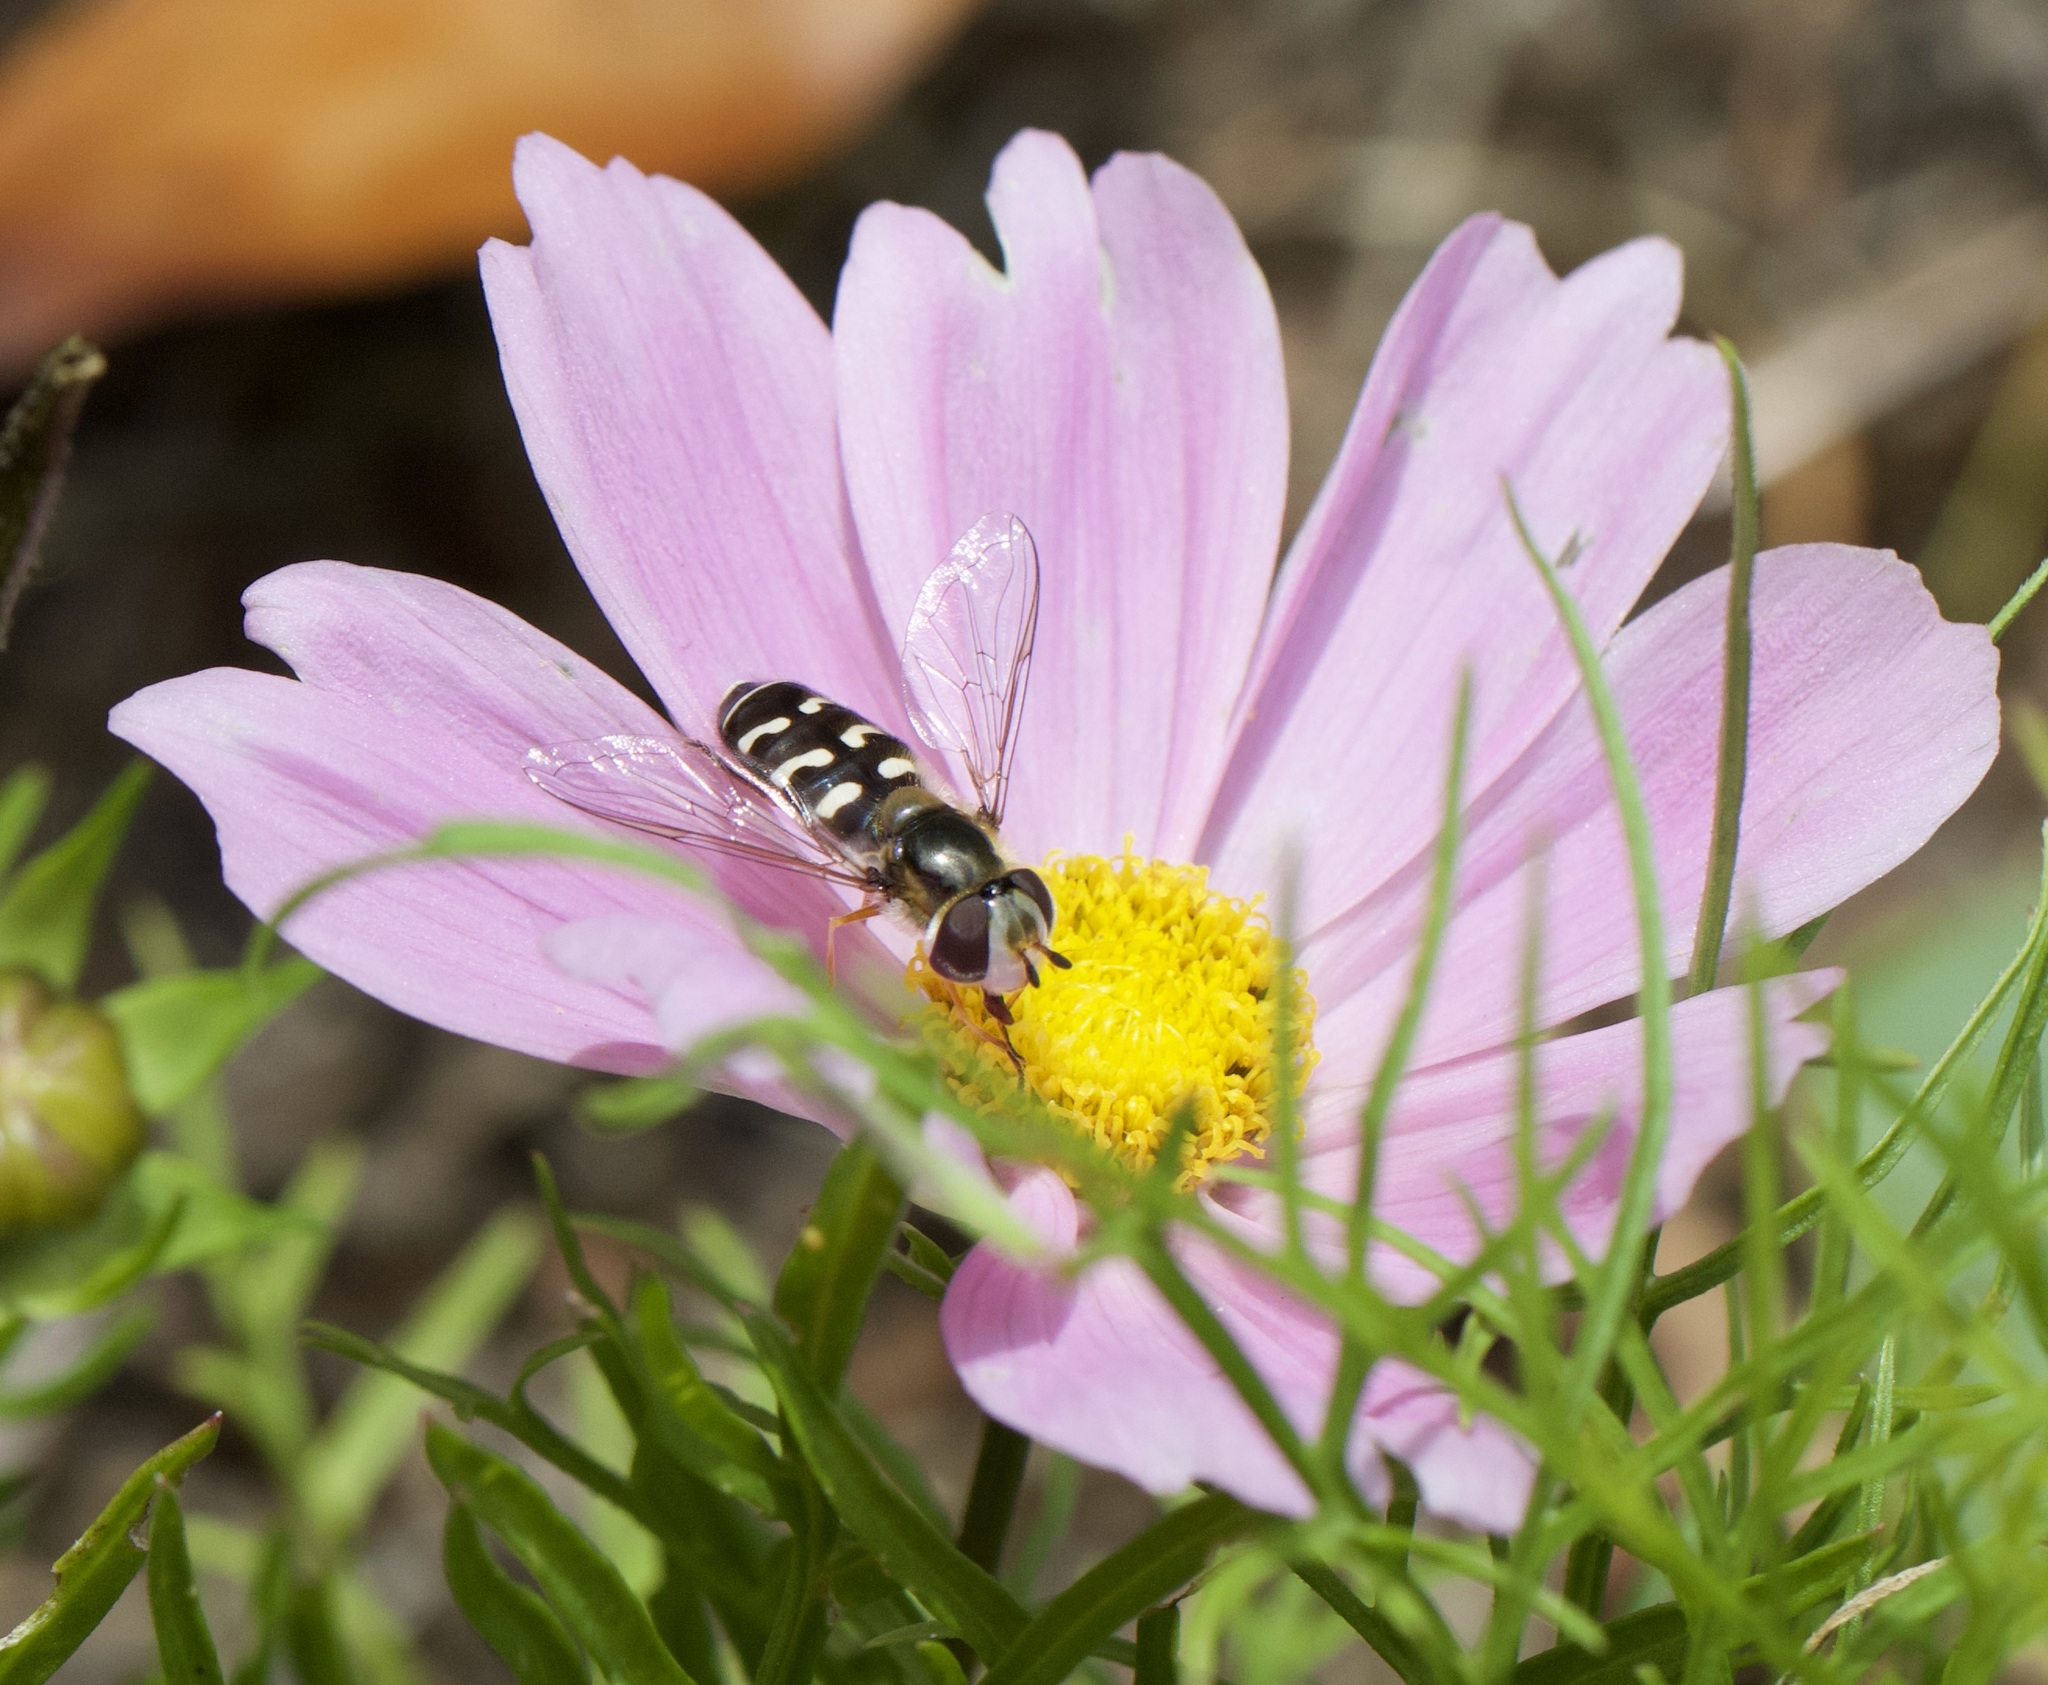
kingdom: Animalia
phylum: Arthropoda
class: Insecta
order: Diptera
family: Syrphidae
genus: Scaeva
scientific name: Scaeva pyrastri
